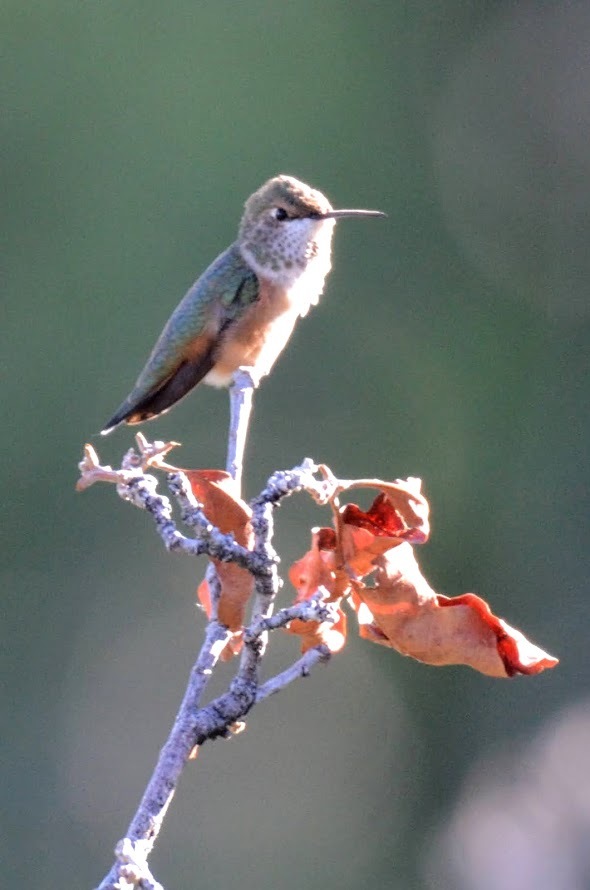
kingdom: Animalia
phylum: Chordata
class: Aves
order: Apodiformes
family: Trochilidae
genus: Selasphorus
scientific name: Selasphorus rufus
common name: Rufous hummingbird
